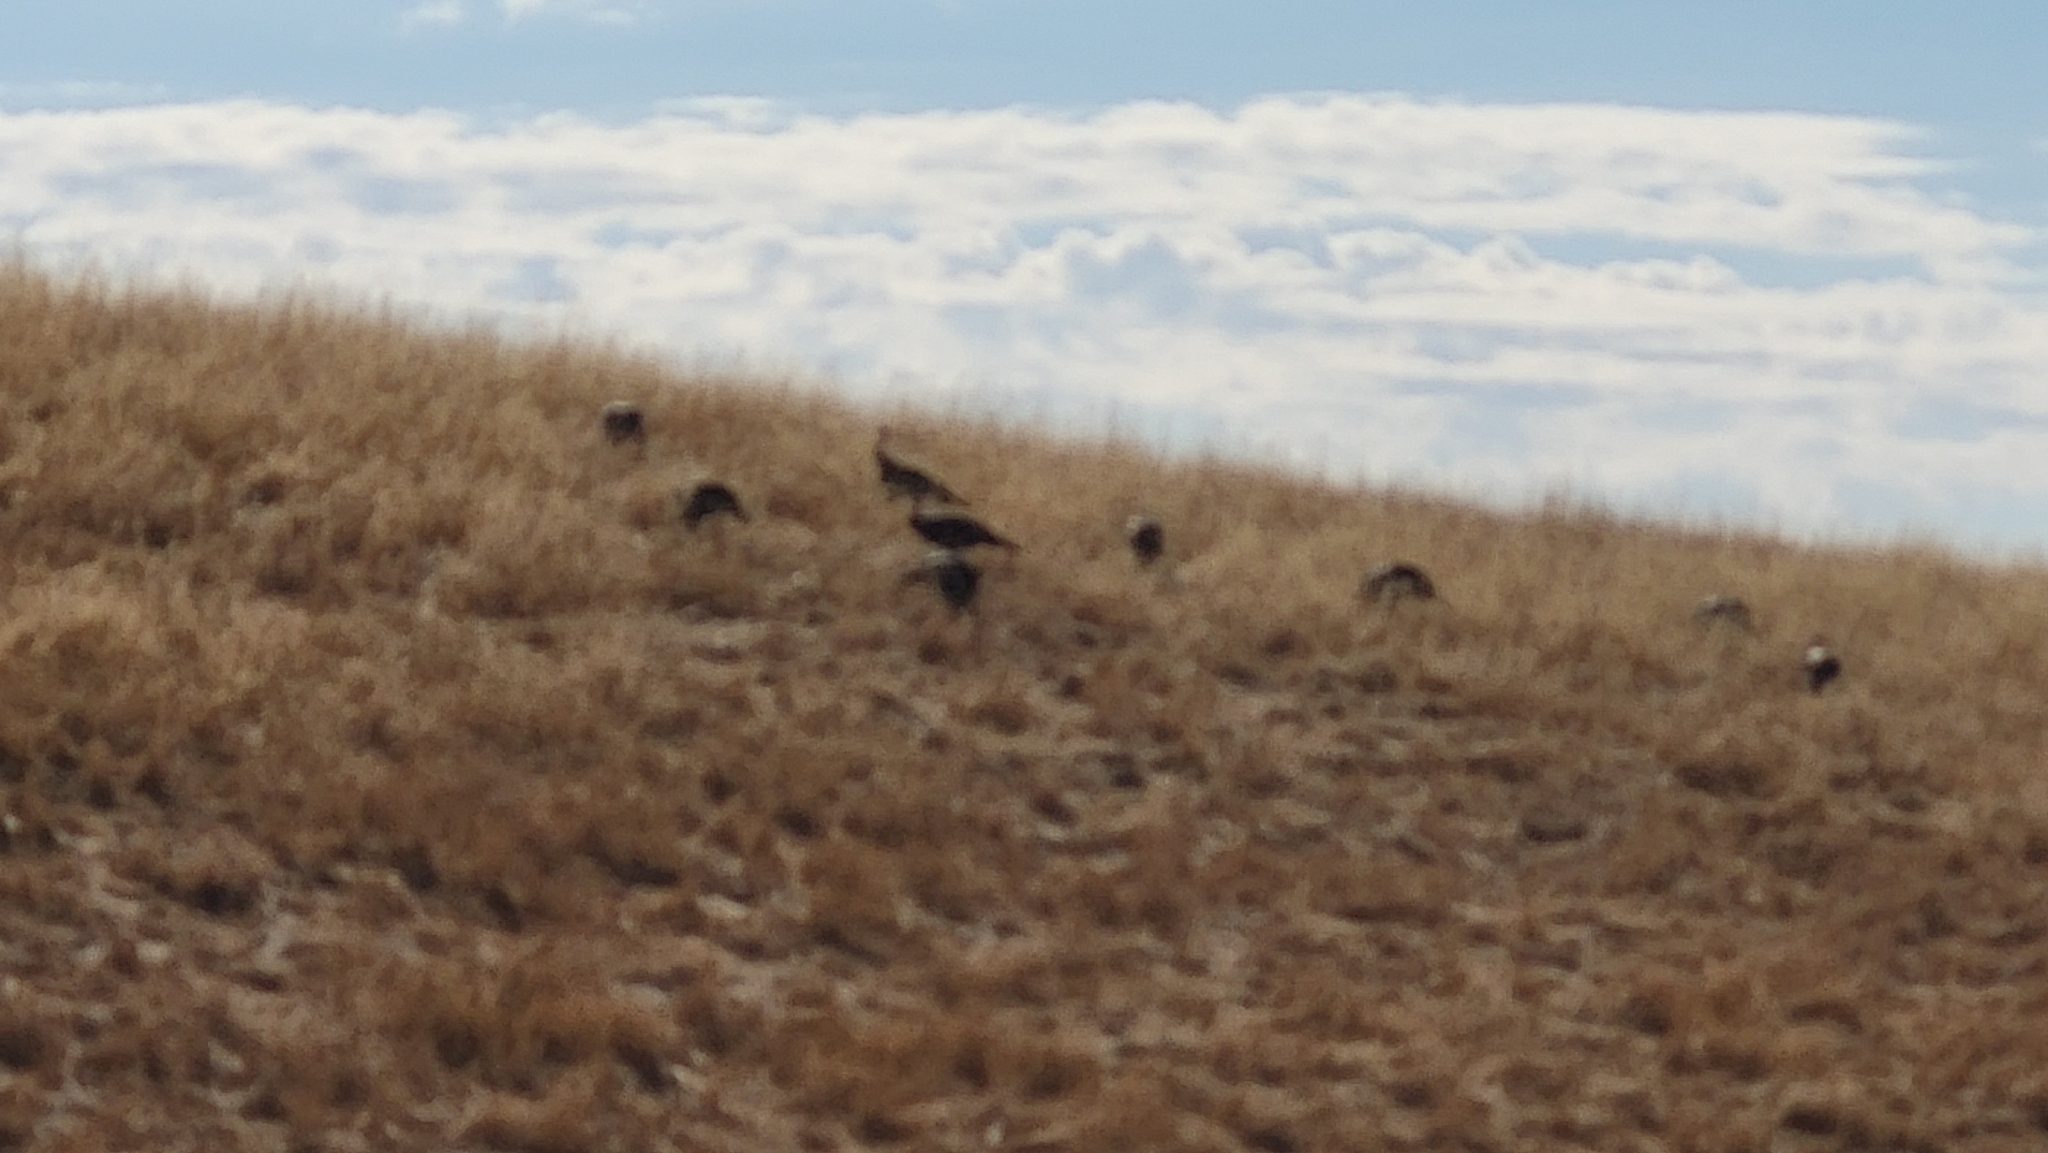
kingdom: Animalia
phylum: Chordata
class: Aves
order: Galliformes
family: Phasianidae
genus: Meleagris
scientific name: Meleagris gallopavo
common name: Wild turkey
